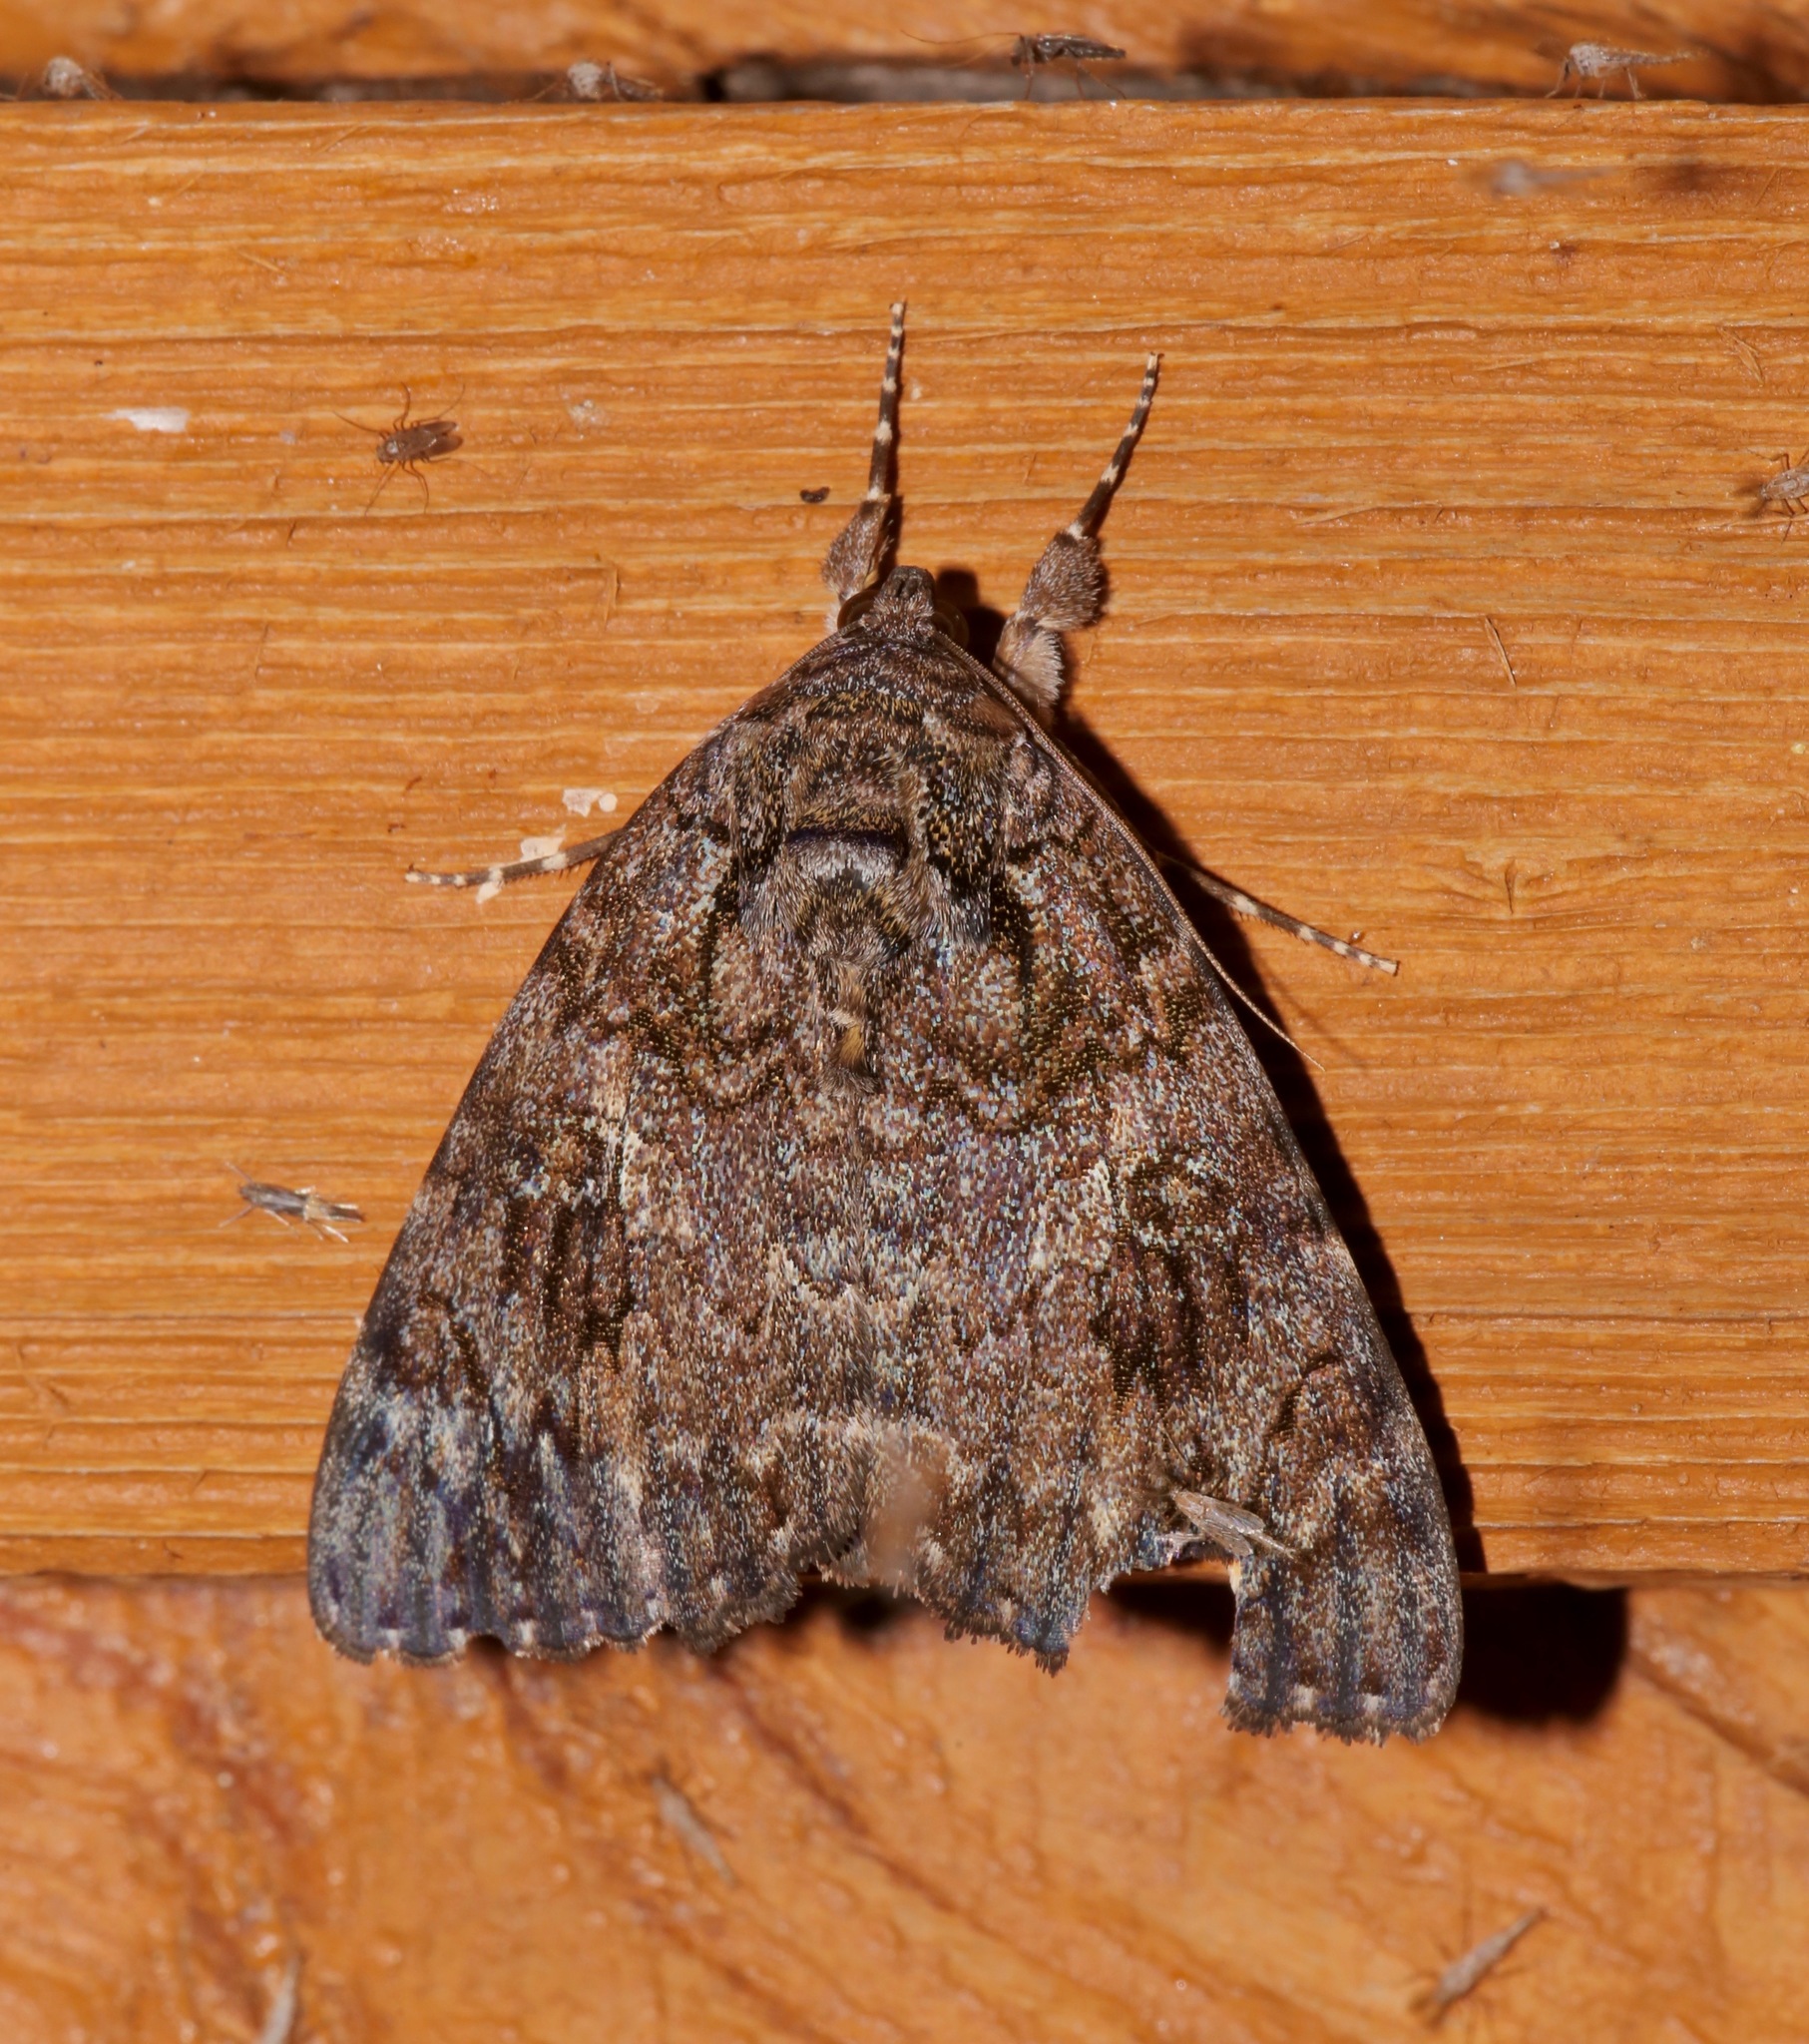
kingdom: Animalia
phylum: Arthropoda
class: Insecta
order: Lepidoptera
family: Erebidae
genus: Catocala
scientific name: Catocala umbrosa
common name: Umber underwing
